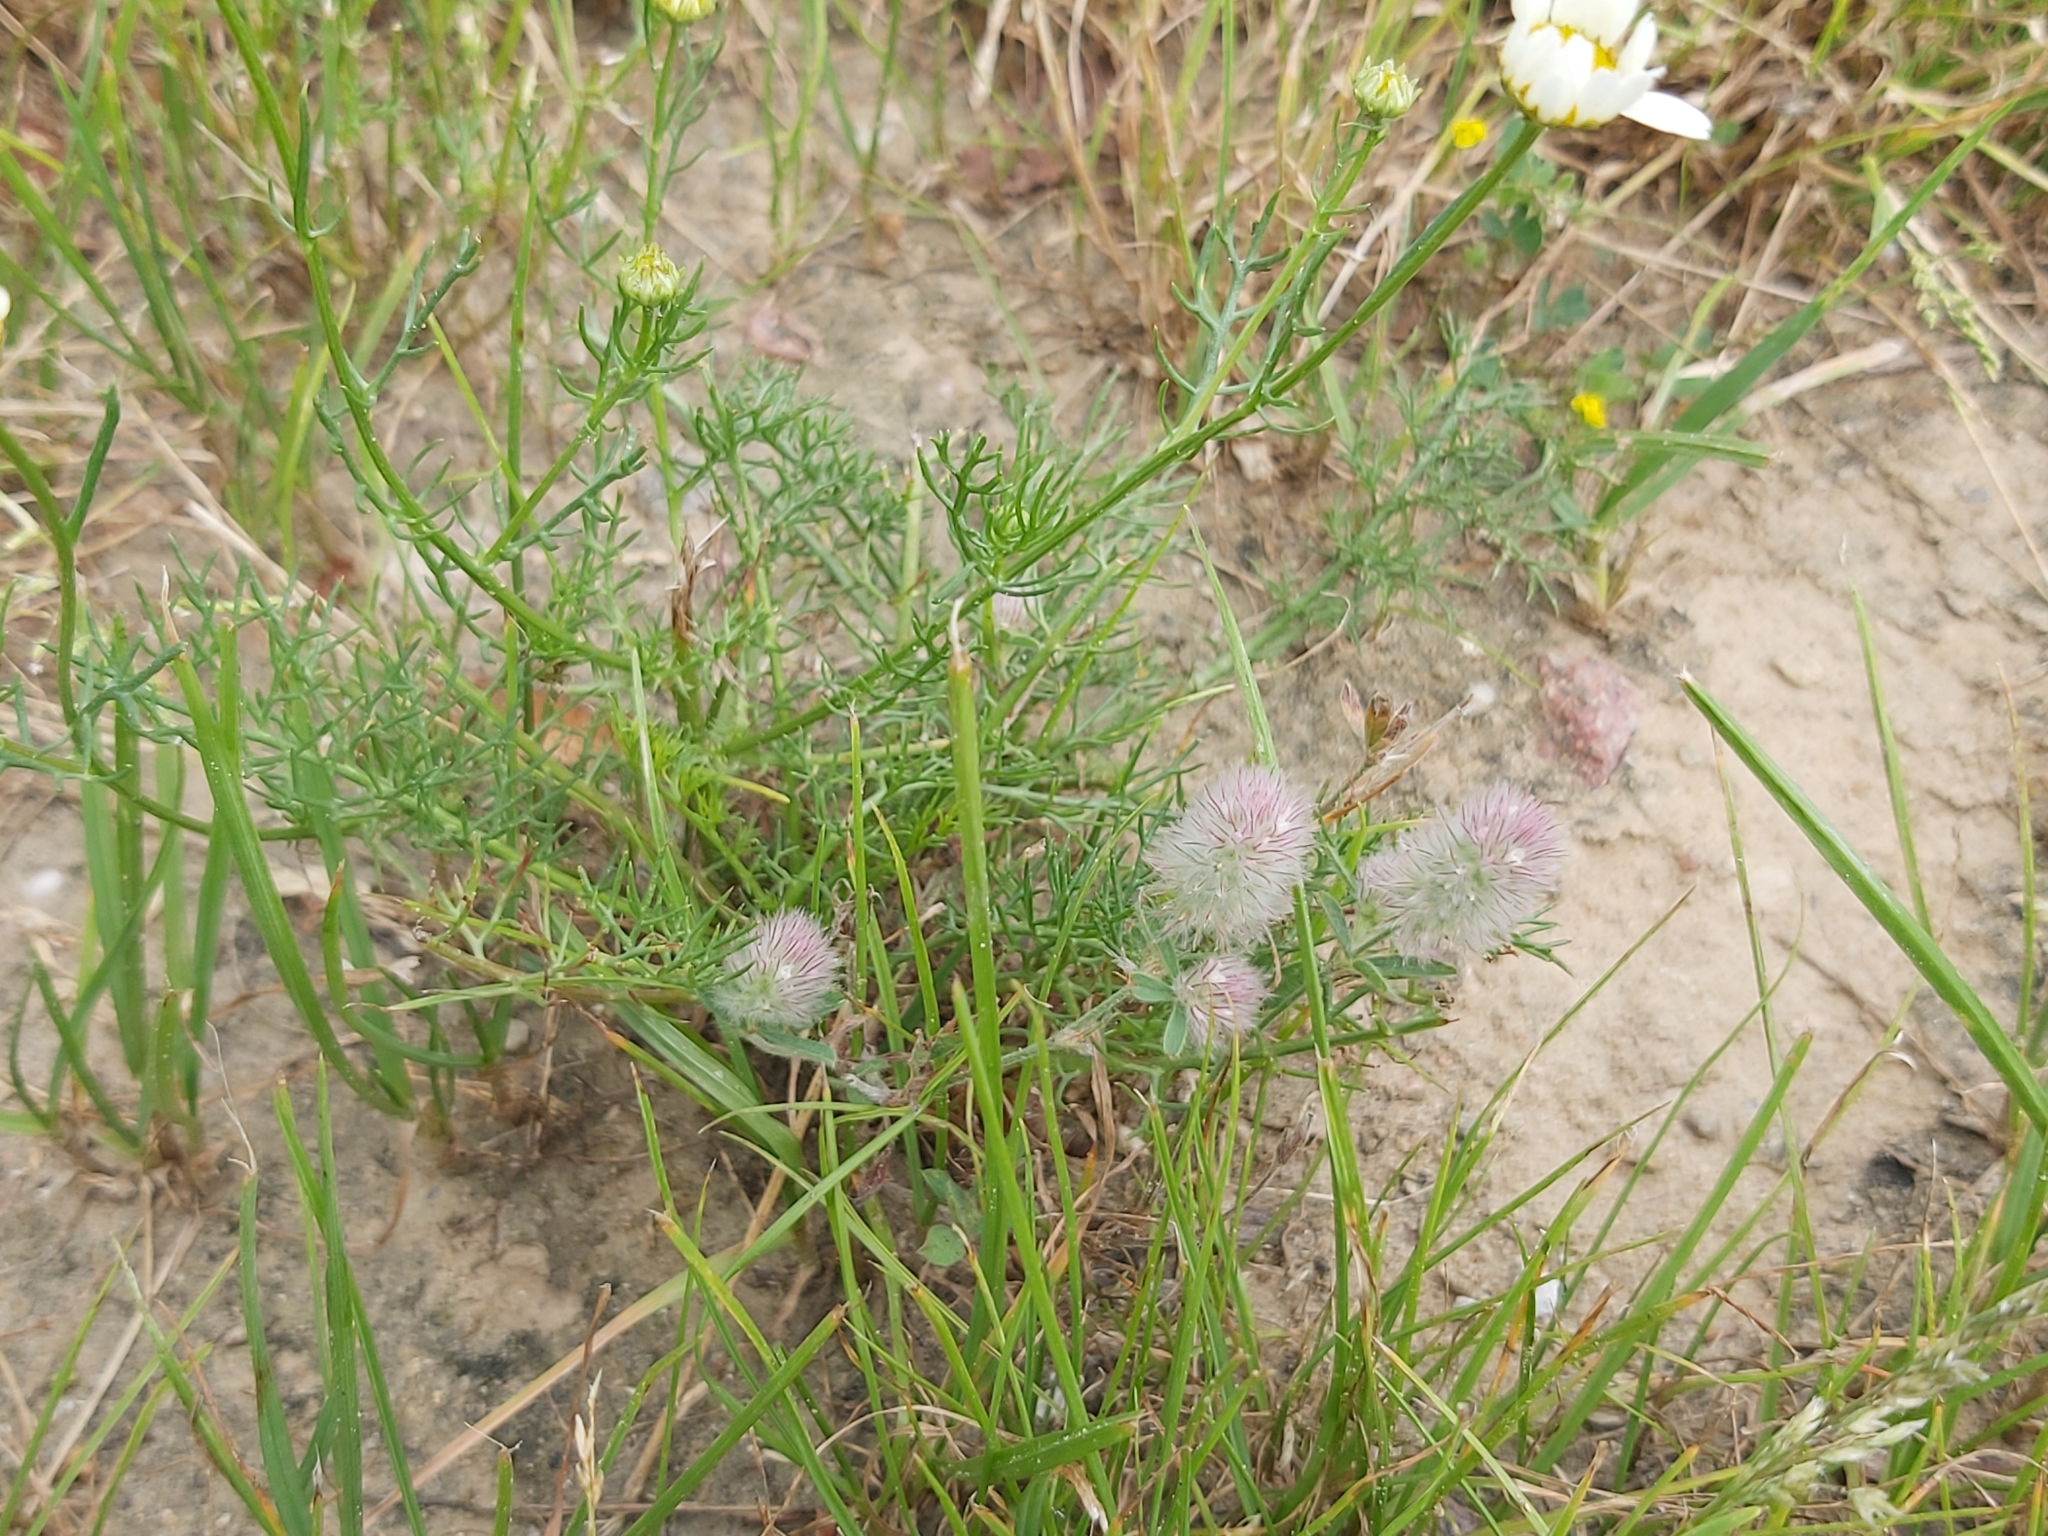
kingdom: Plantae
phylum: Tracheophyta
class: Magnoliopsida
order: Fabales
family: Fabaceae
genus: Trifolium
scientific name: Trifolium arvense
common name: Hare's-foot clover
